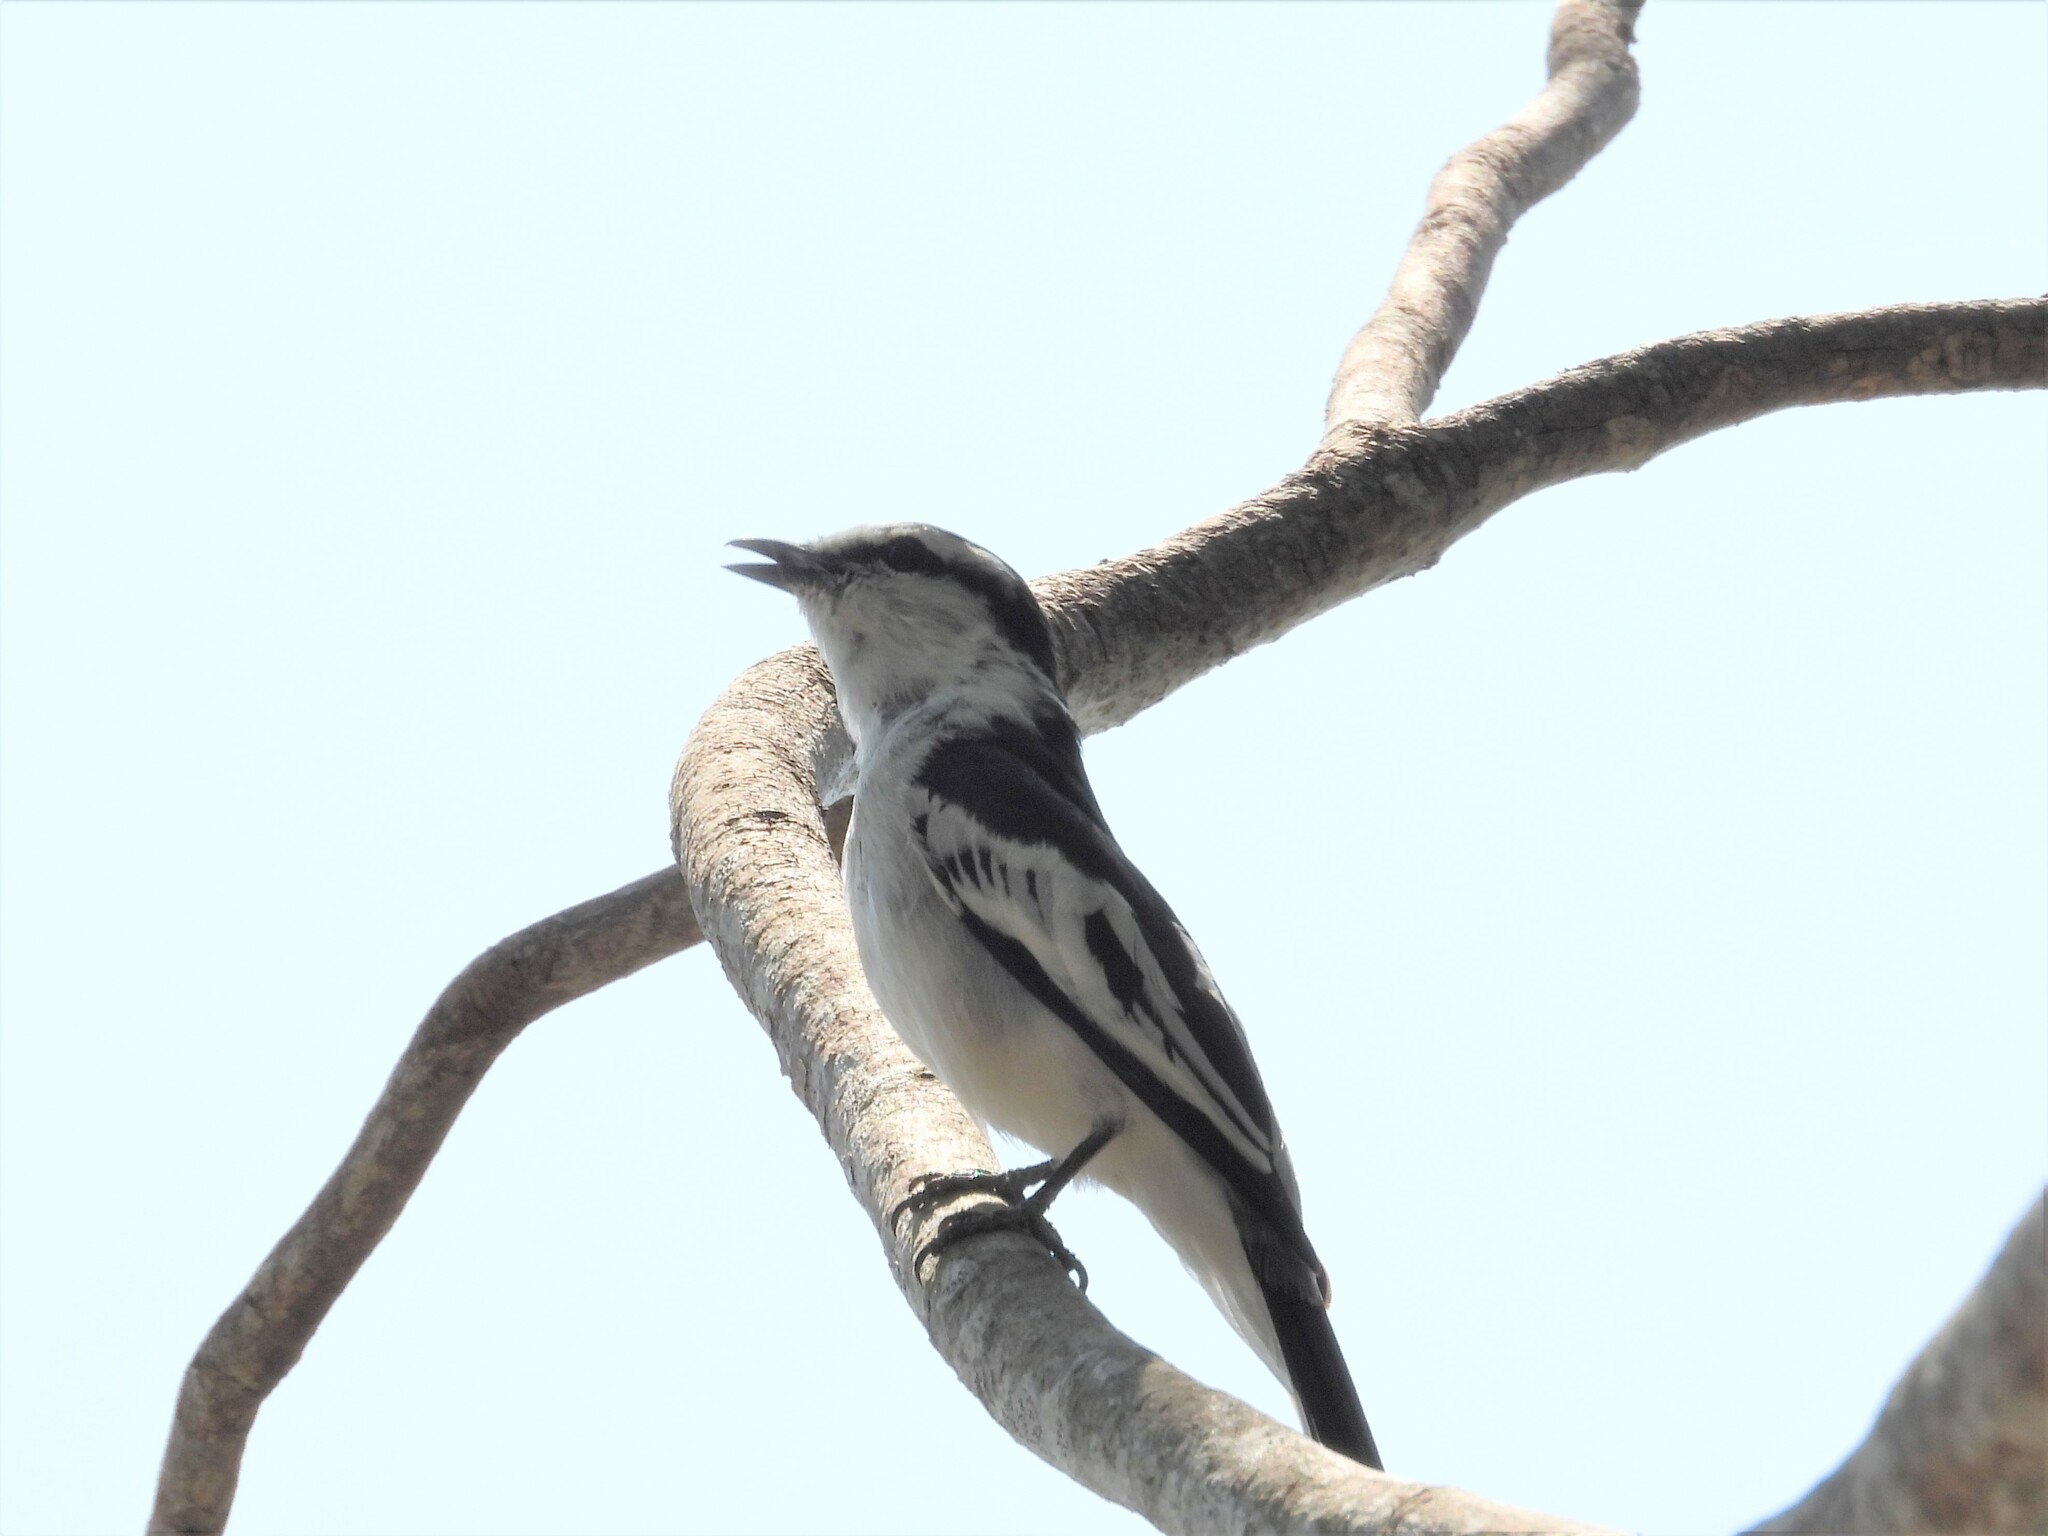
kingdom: Animalia
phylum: Chordata
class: Aves
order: Passeriformes
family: Campephagidae
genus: Lalage
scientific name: Lalage nigra
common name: Pied triller
